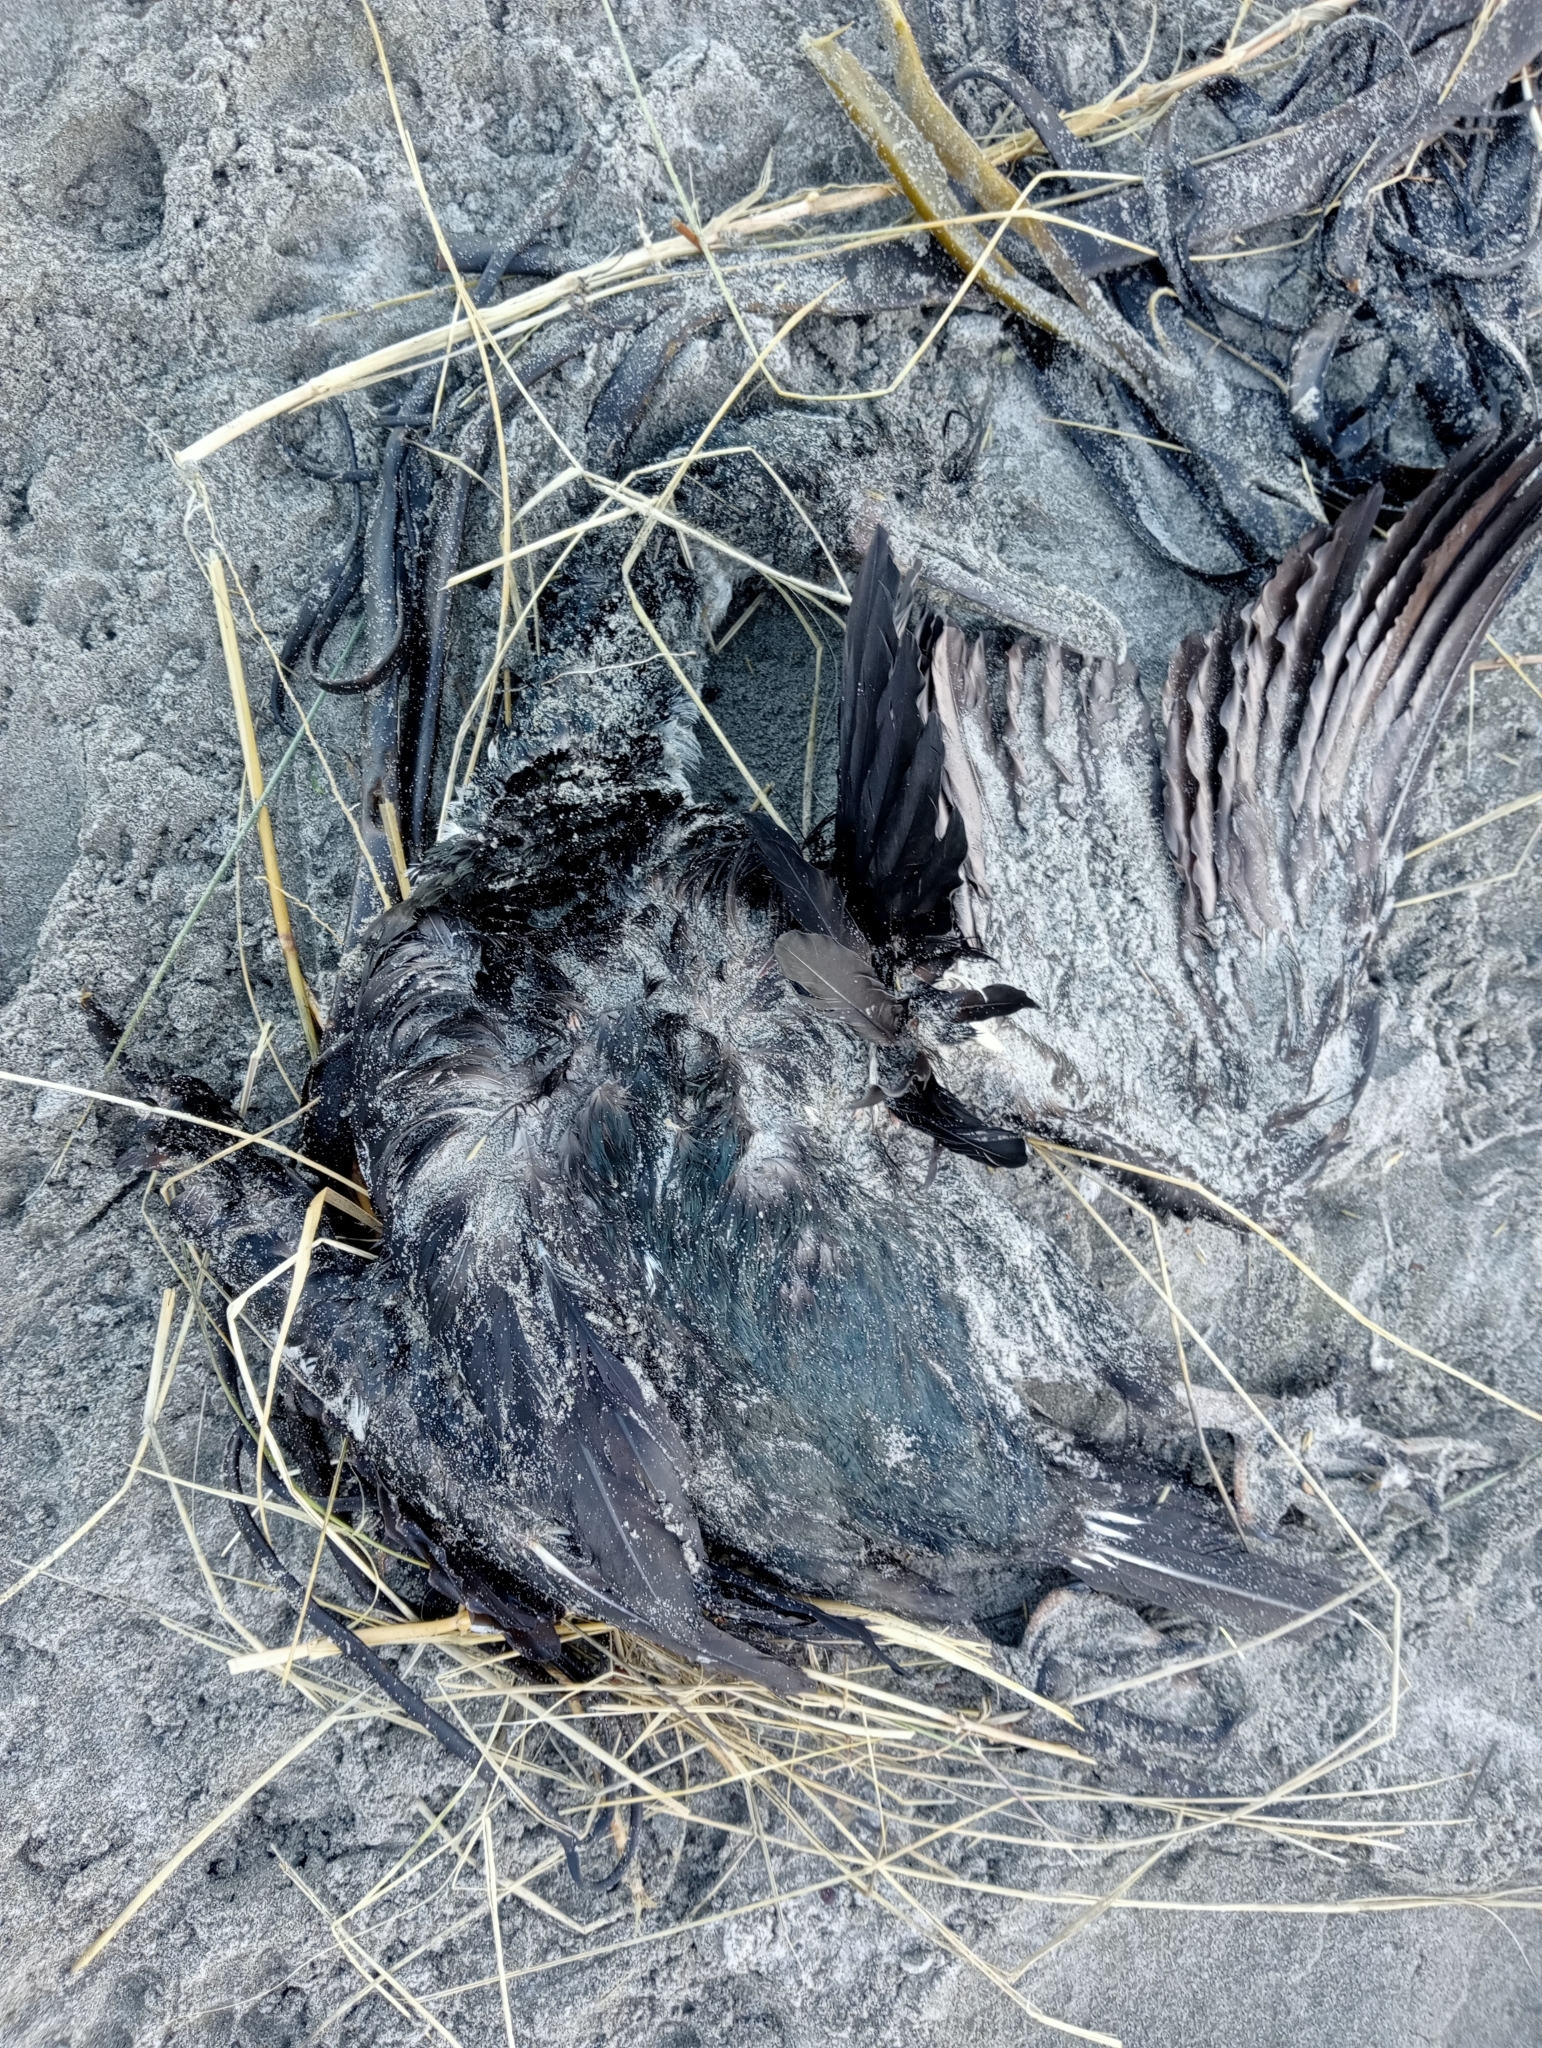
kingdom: Animalia
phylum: Chordata
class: Aves
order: Suliformes
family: Phalacrocoracidae
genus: Leucocarbo
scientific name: Leucocarbo chalconotus
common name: Stewart shag
